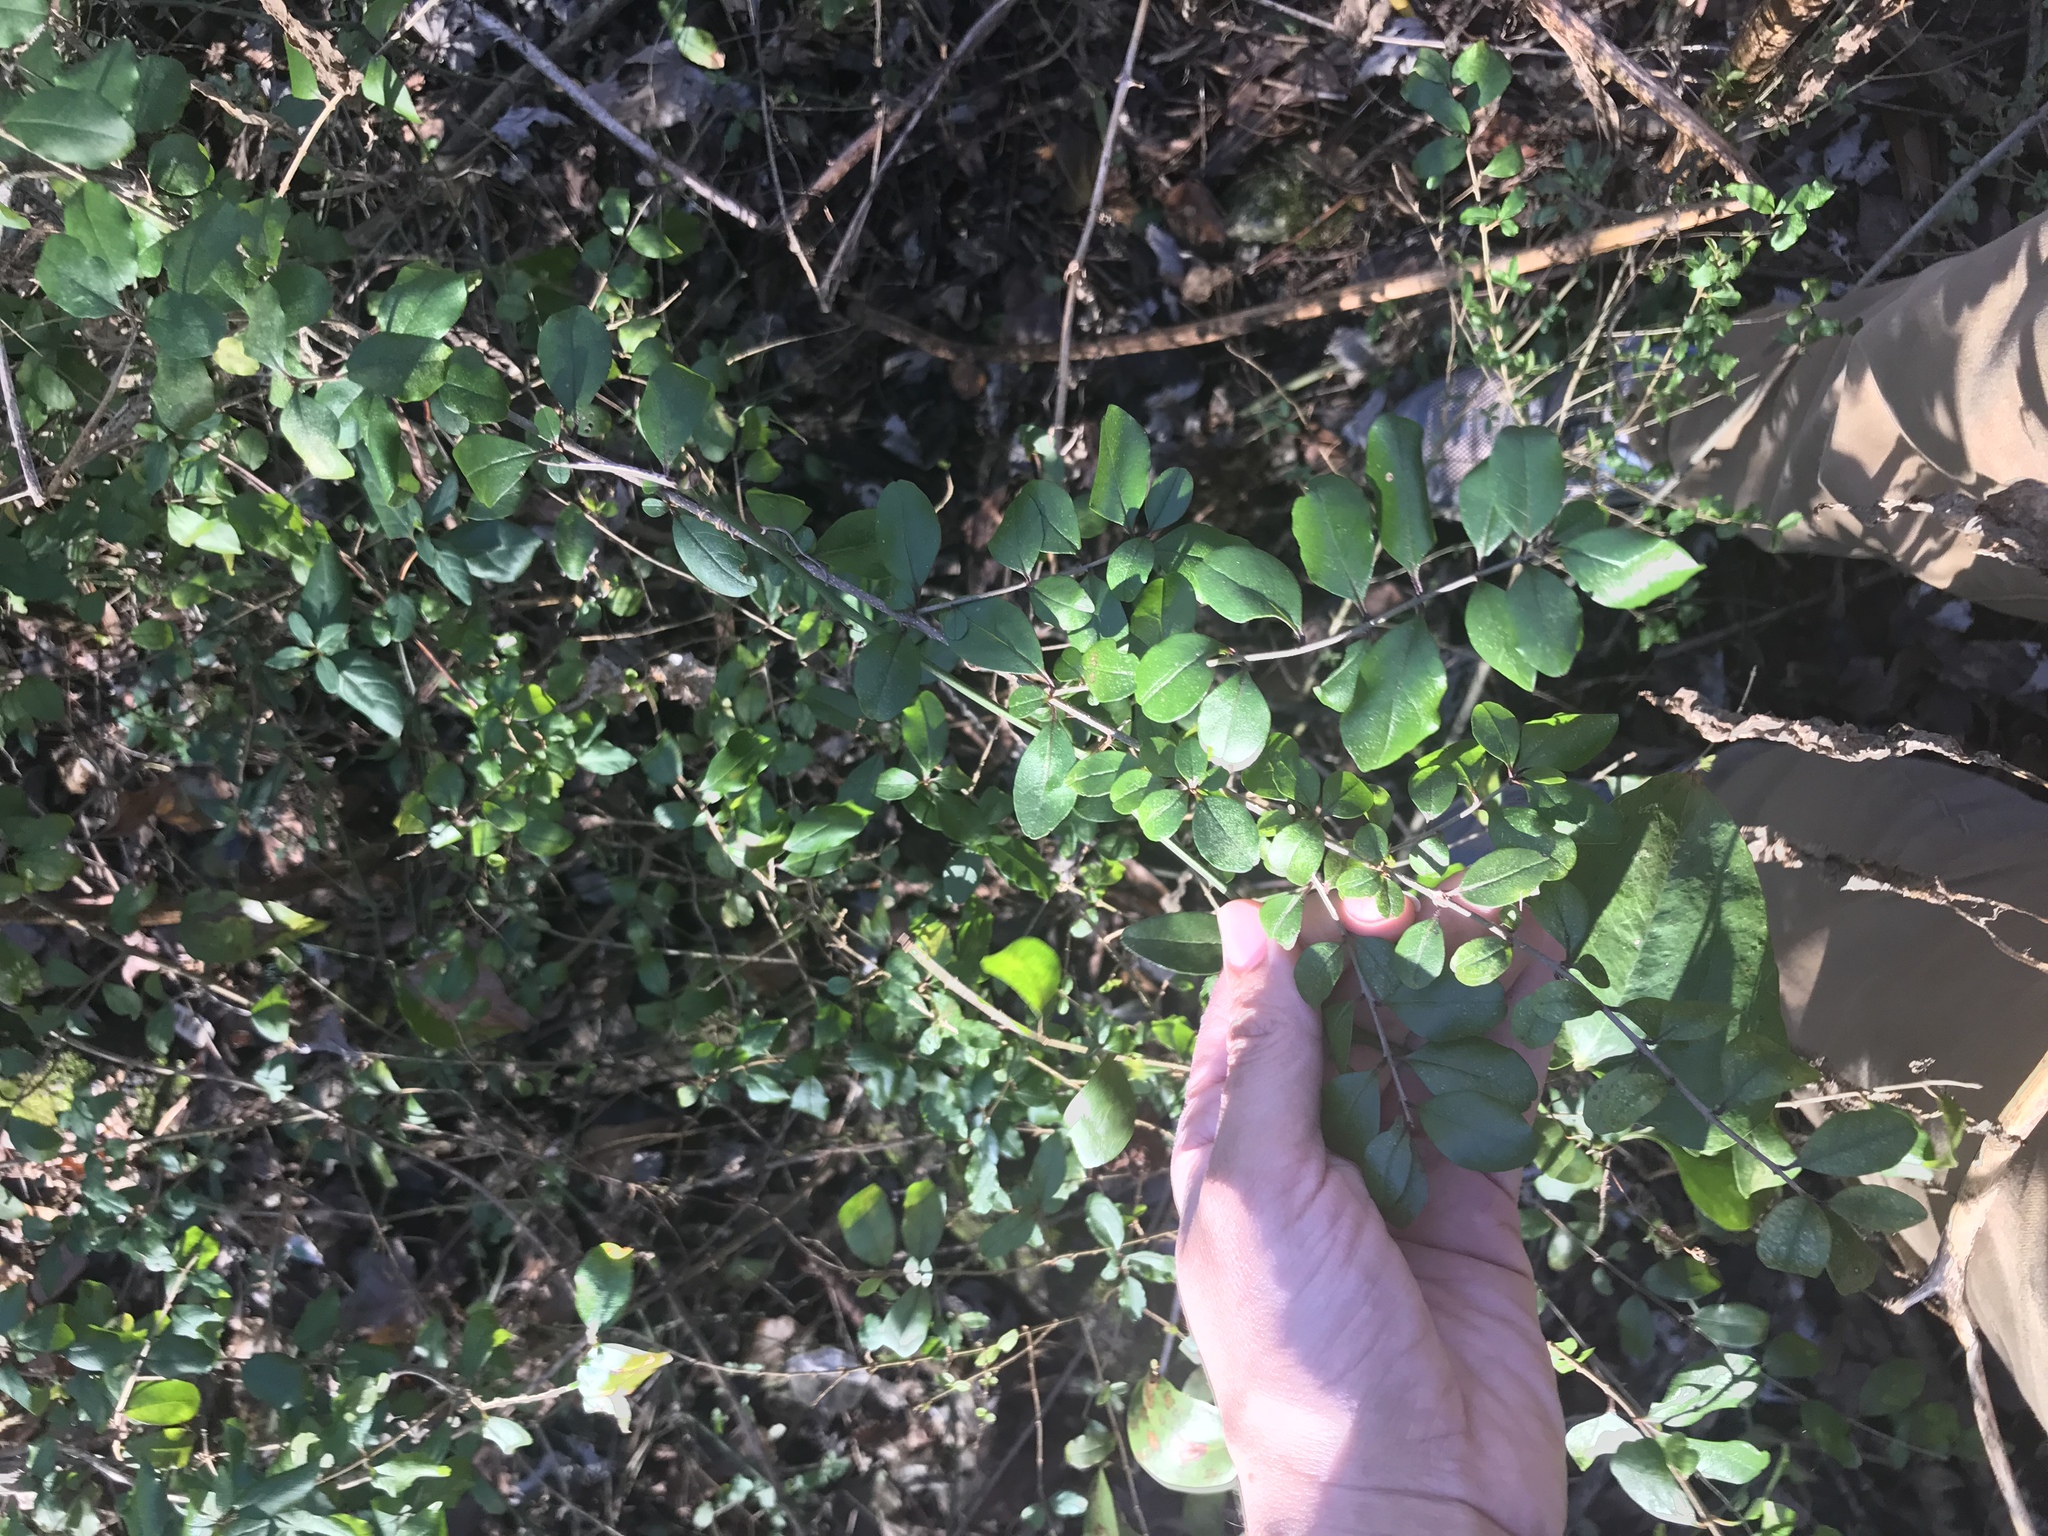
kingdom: Plantae
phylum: Tracheophyta
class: Magnoliopsida
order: Lamiales
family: Oleaceae
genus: Ligustrum
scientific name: Ligustrum sinense
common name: Chinese privet
